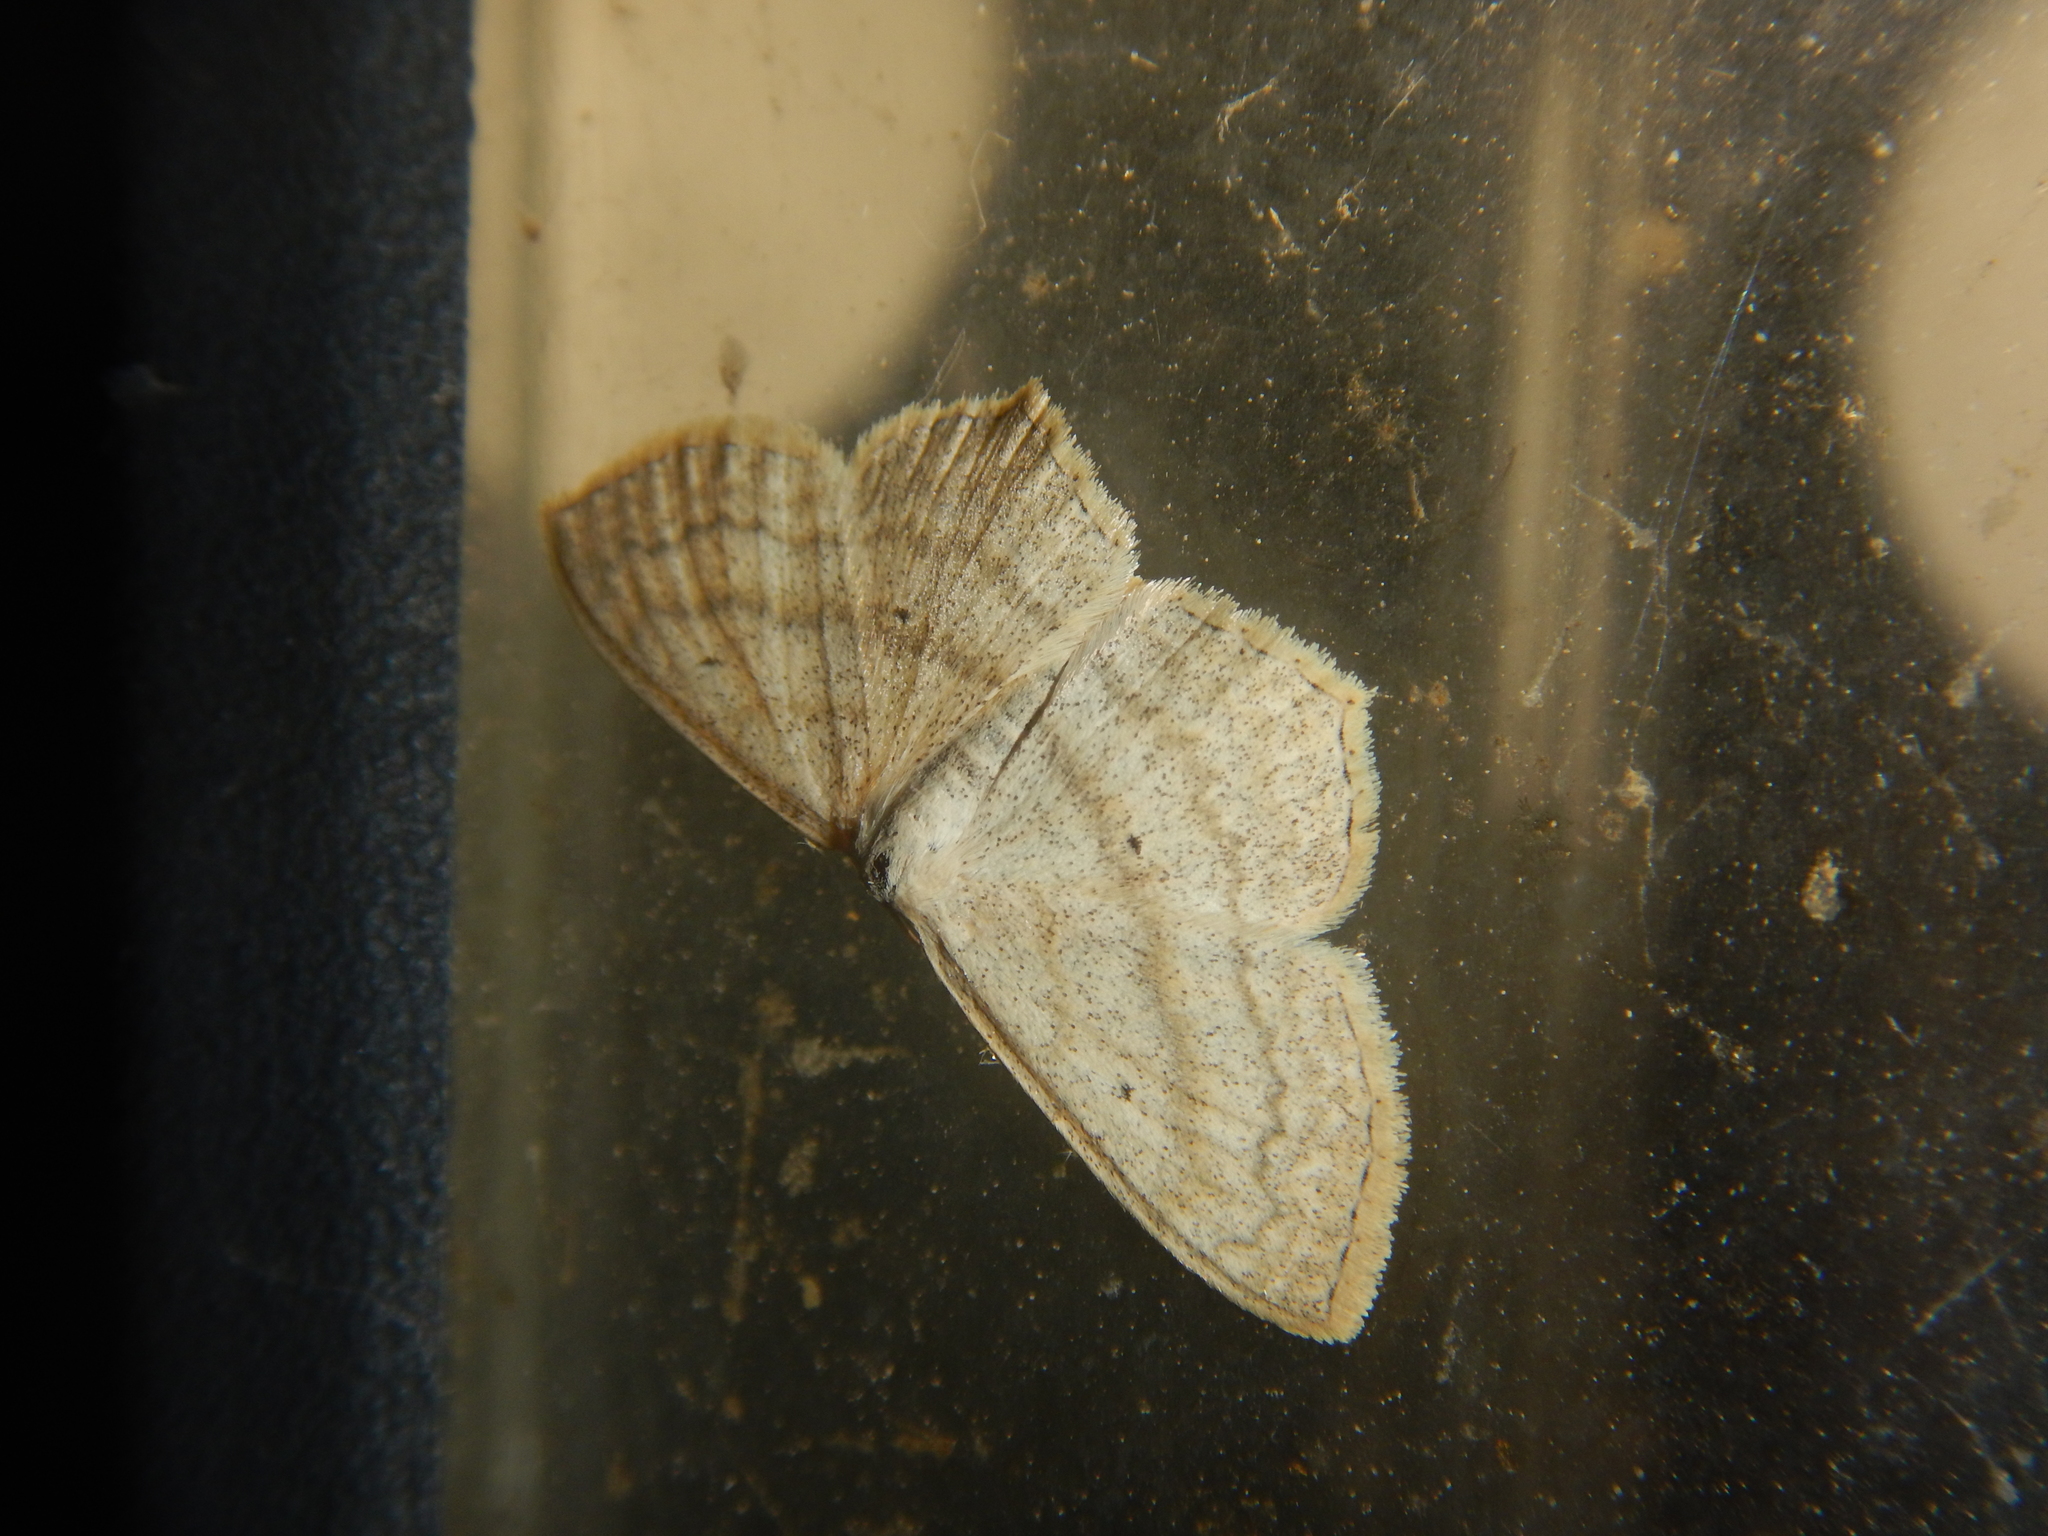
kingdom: Animalia
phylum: Arthropoda
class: Insecta
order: Lepidoptera
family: Geometridae
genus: Scopula
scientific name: Scopula nigropunctata
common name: Sub-angled wave
